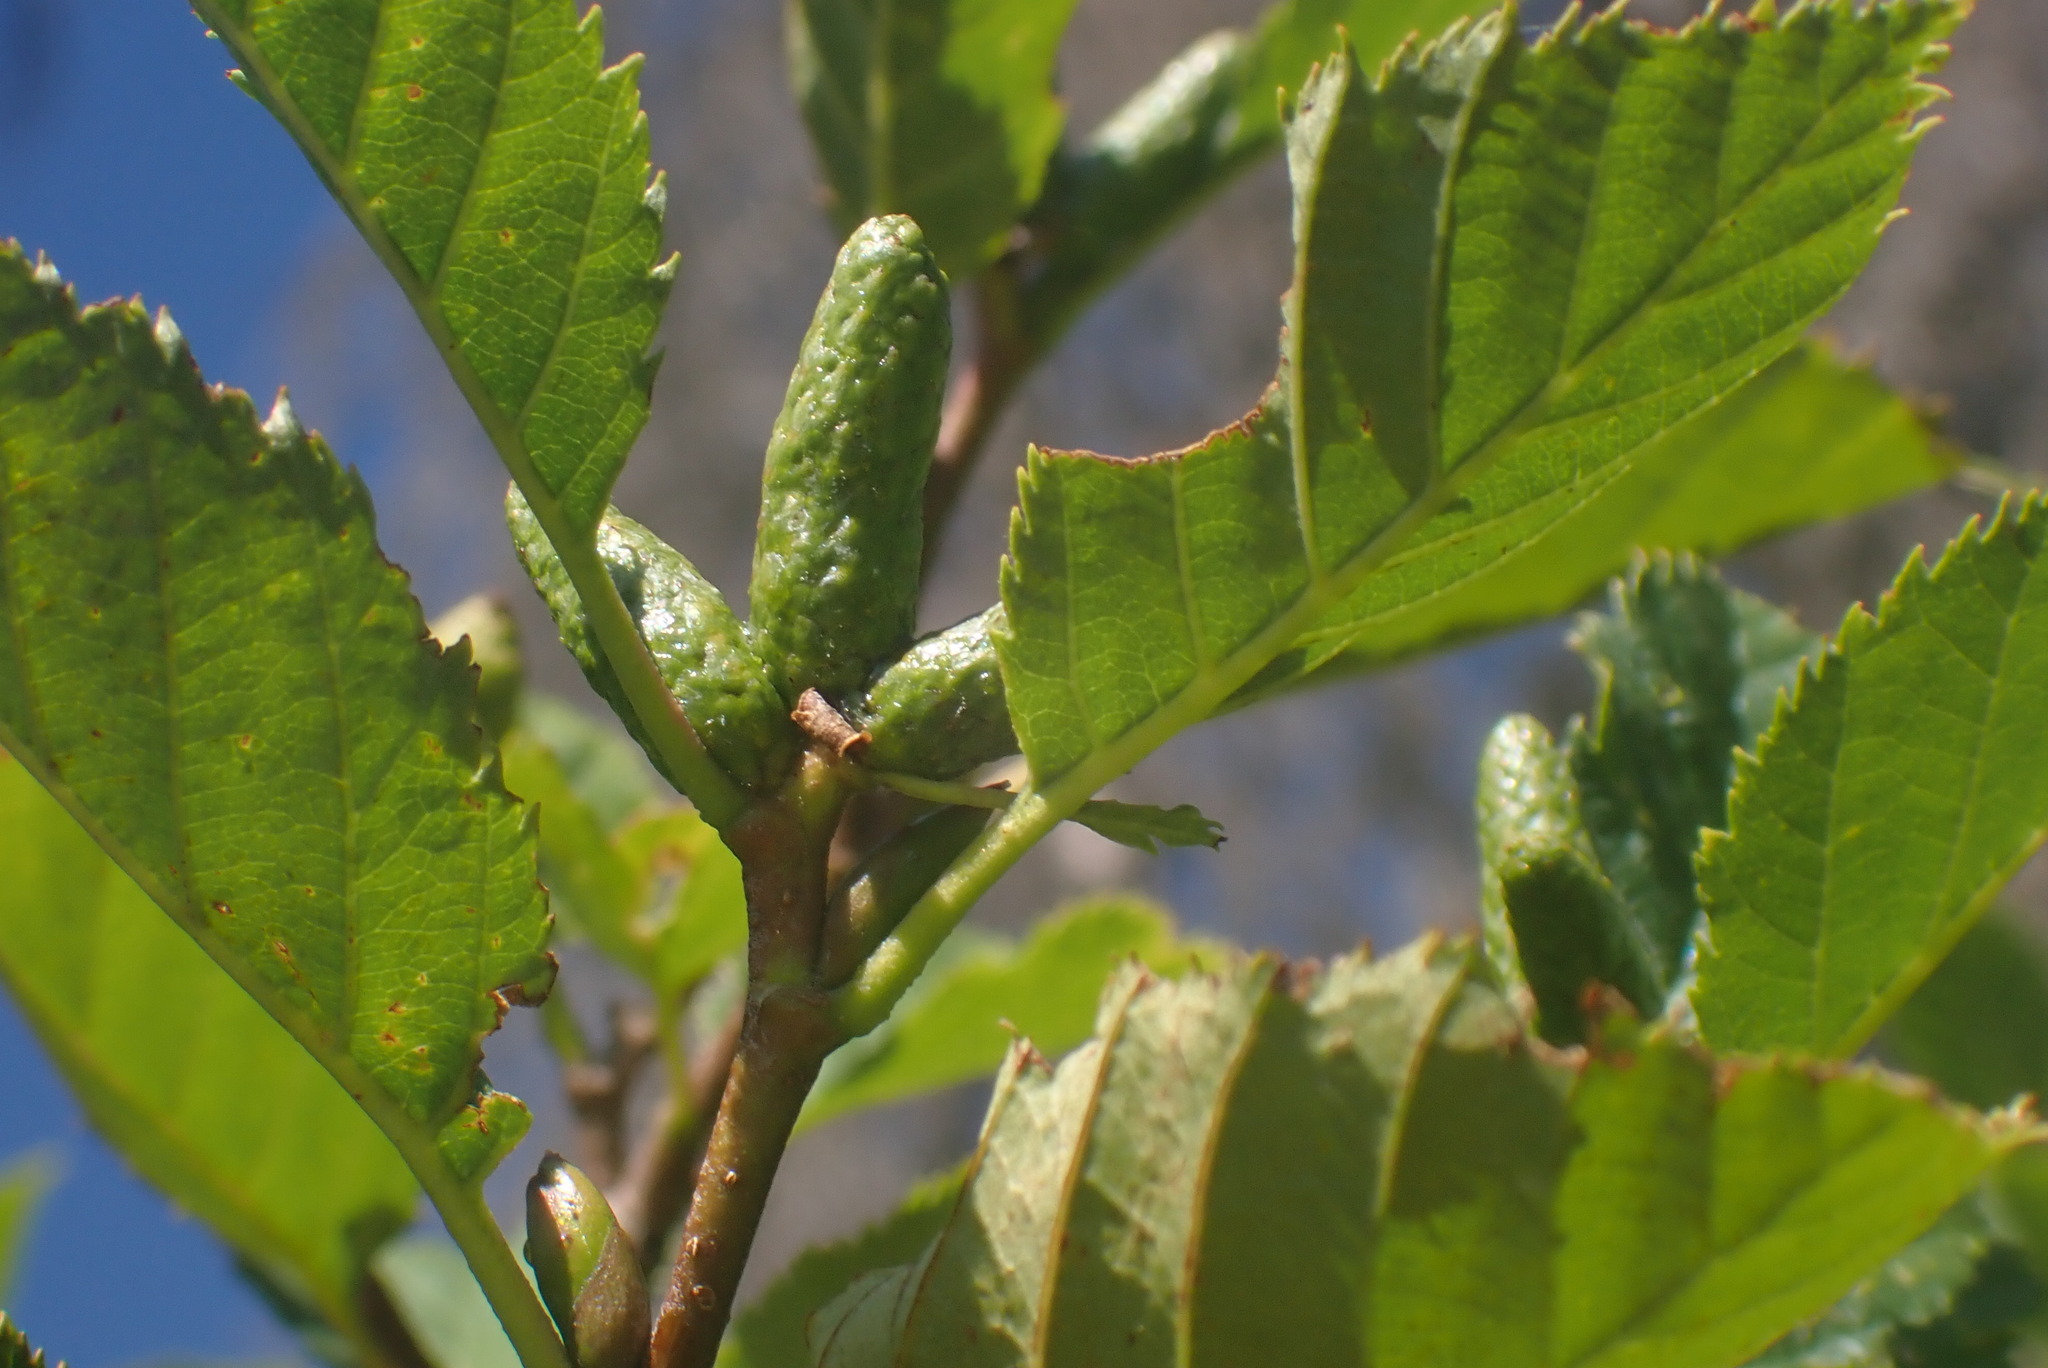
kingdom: Plantae
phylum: Tracheophyta
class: Magnoliopsida
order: Fagales
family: Betulaceae
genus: Alnus
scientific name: Alnus alnobetula
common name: Green alder
